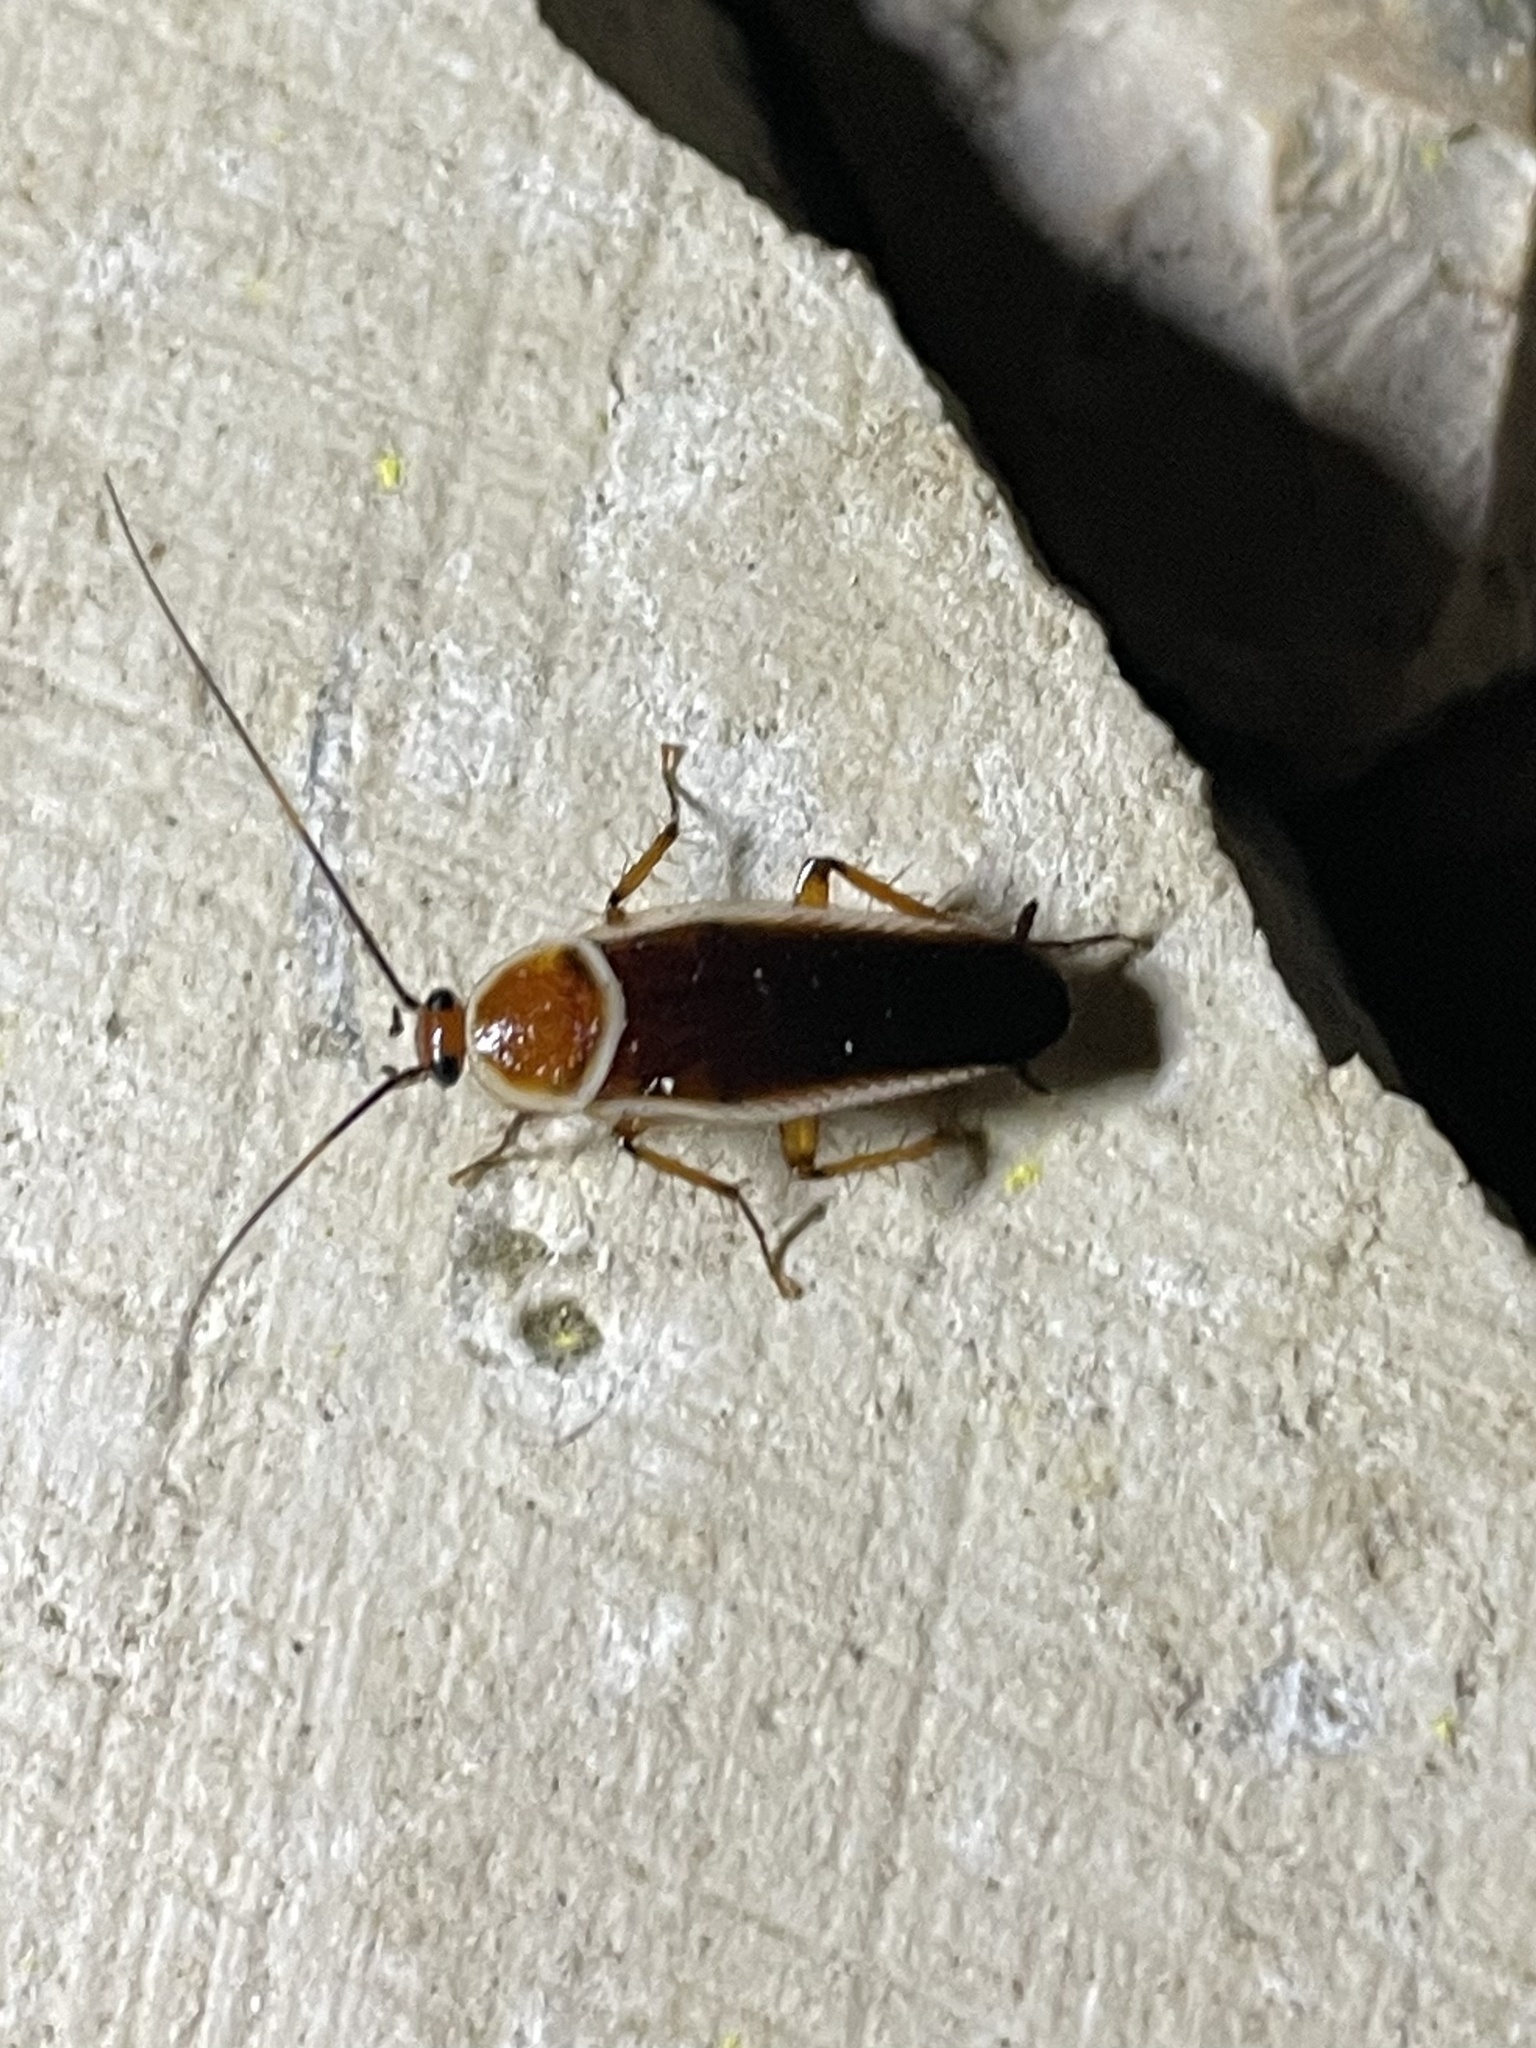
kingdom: Animalia
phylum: Arthropoda
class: Insecta
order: Blattodea
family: Ectobiidae
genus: Pseudomops
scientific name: Pseudomops septentrionalis
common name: Pale-bordered field cockroach
